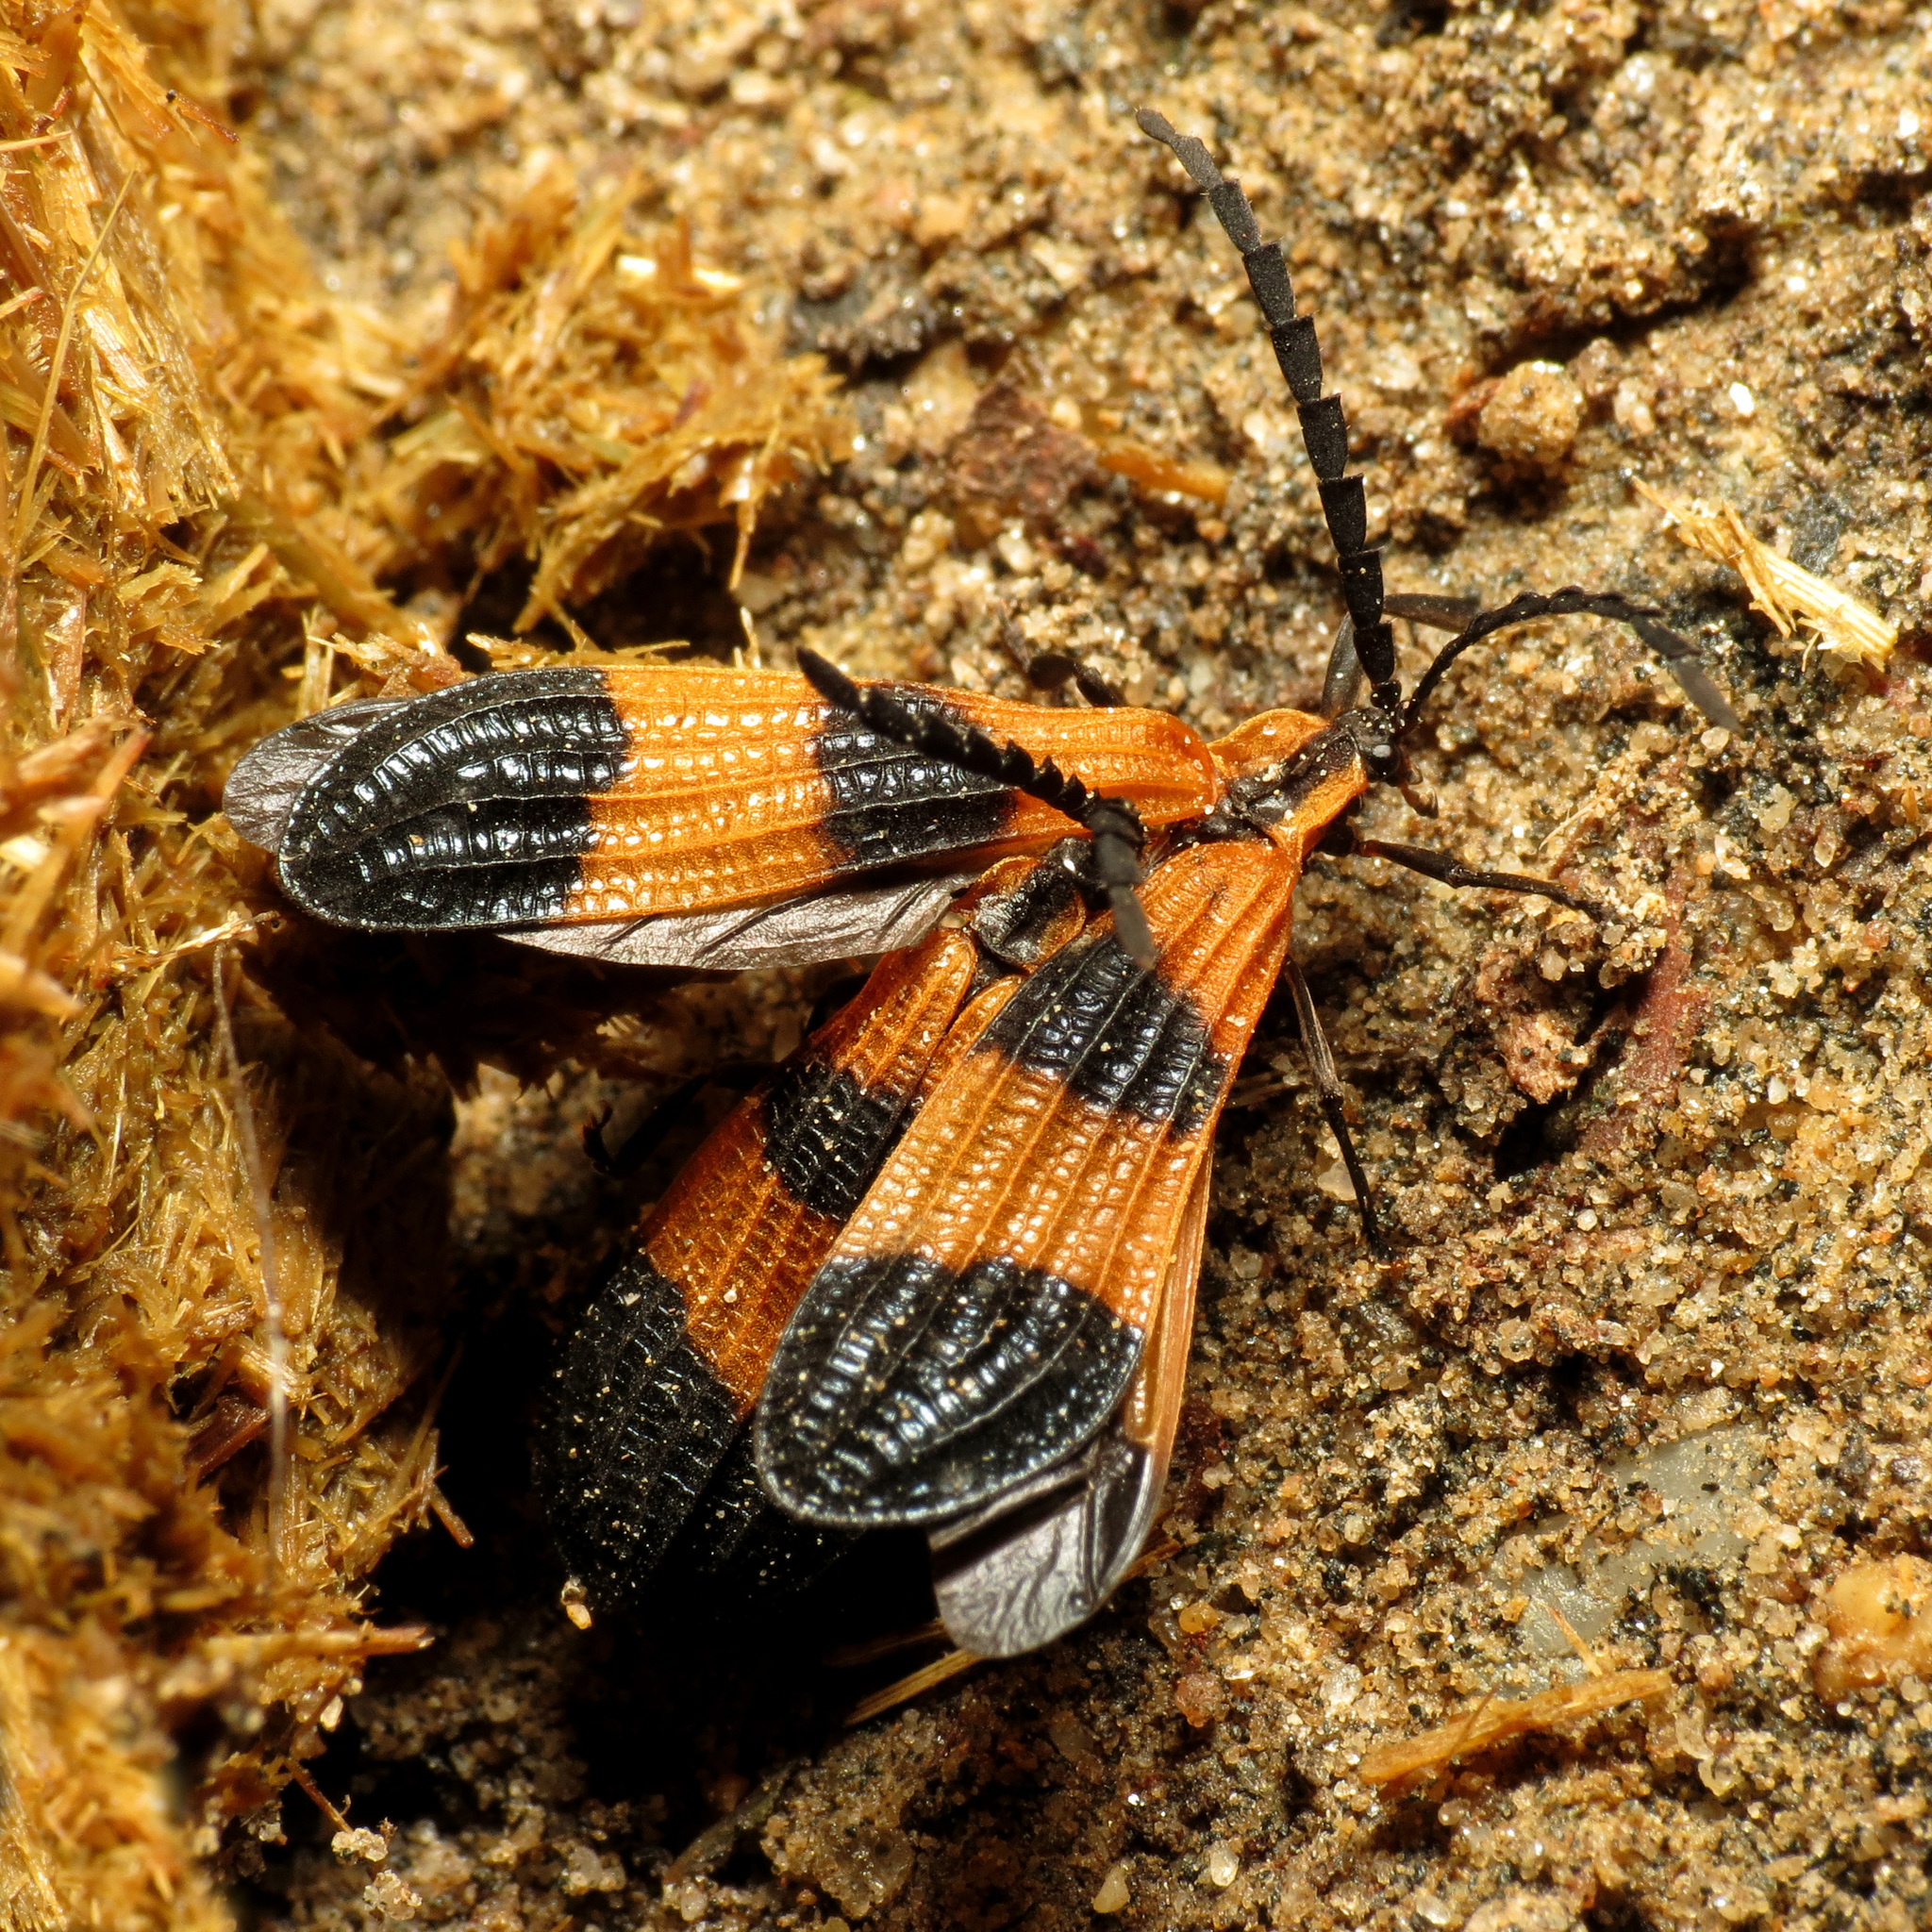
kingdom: Animalia
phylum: Arthropoda
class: Insecta
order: Coleoptera
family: Lycidae
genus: Calopteron
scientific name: Calopteron terminale
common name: End band net-winged beetle
